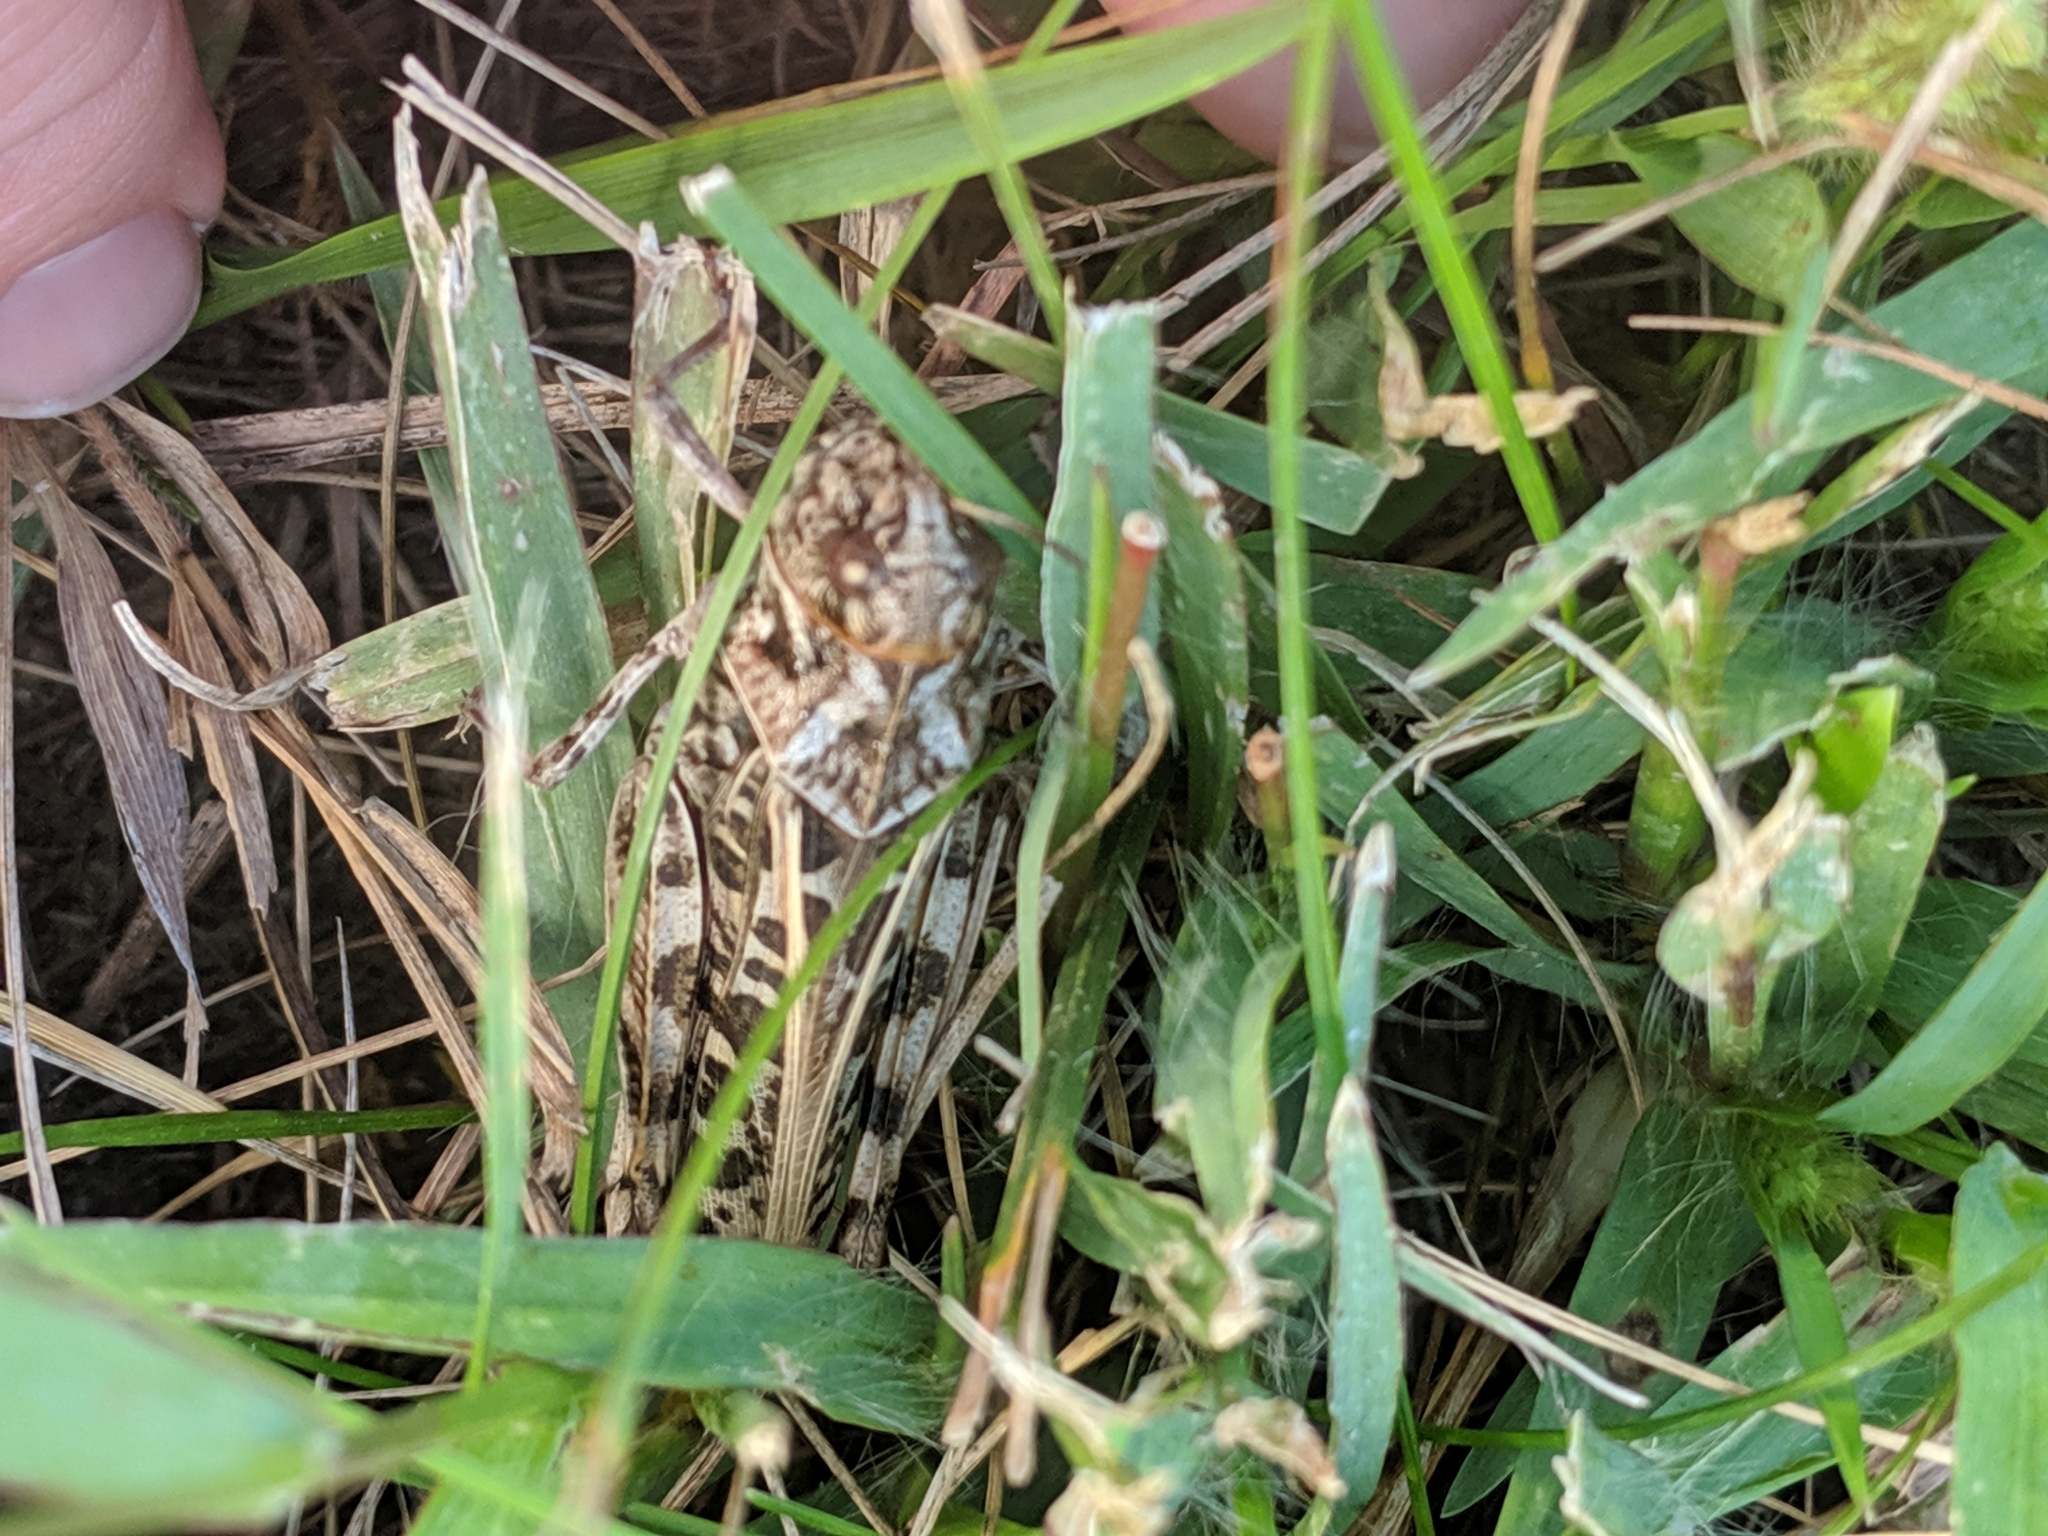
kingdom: Animalia
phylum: Arthropoda
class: Insecta
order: Orthoptera
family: Acrididae
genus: Hippiscus
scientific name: Hippiscus ocelote
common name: Wrinkled grasshopper
